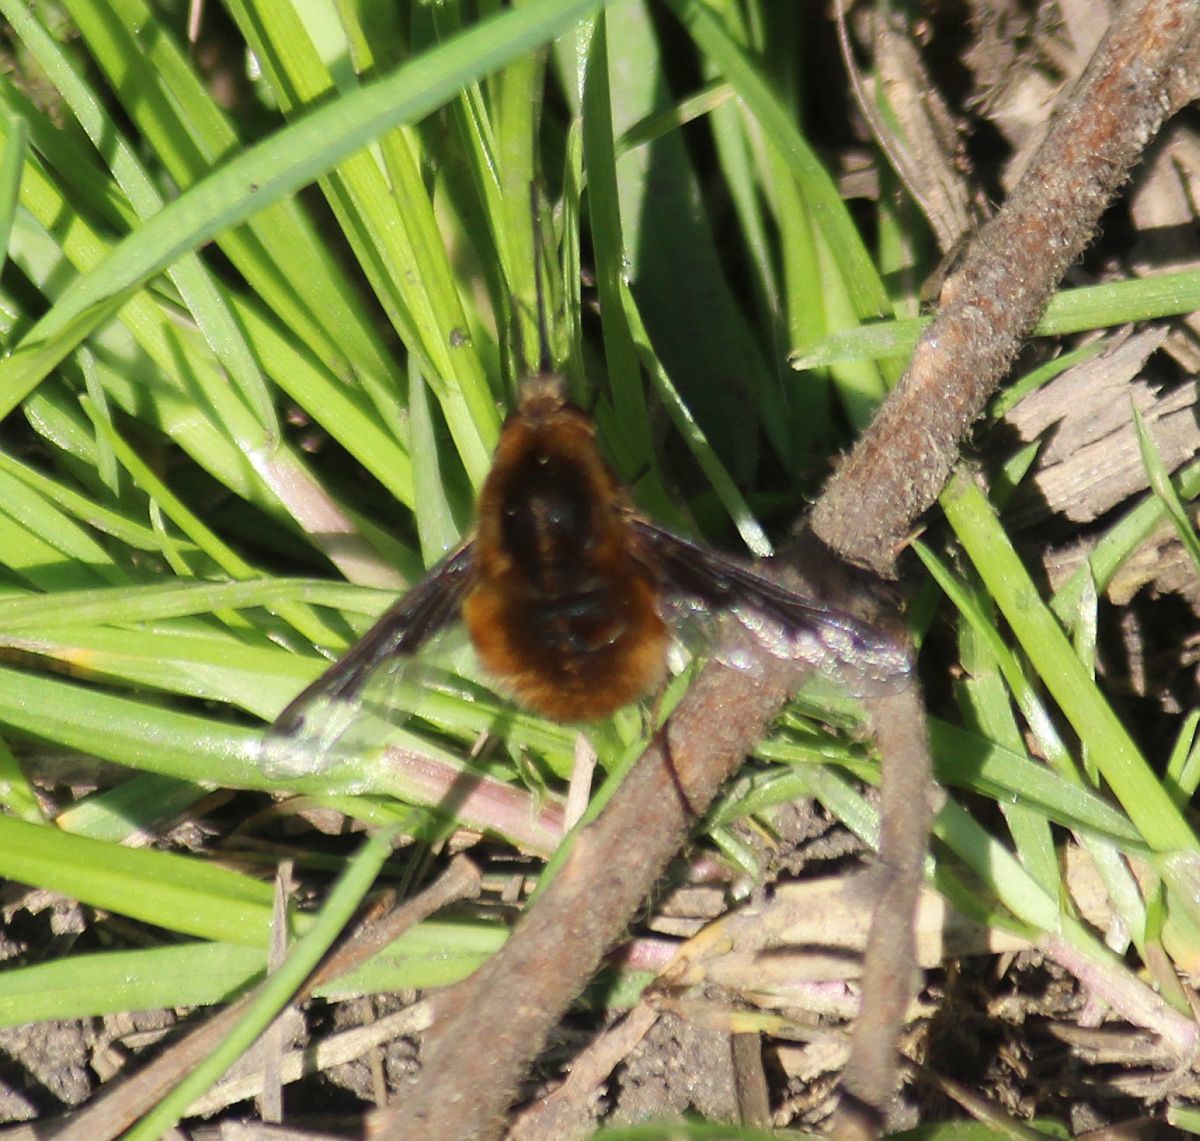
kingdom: Animalia
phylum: Arthropoda
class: Insecta
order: Diptera
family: Bombyliidae
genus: Bombylius
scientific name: Bombylius major
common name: Bee fly
